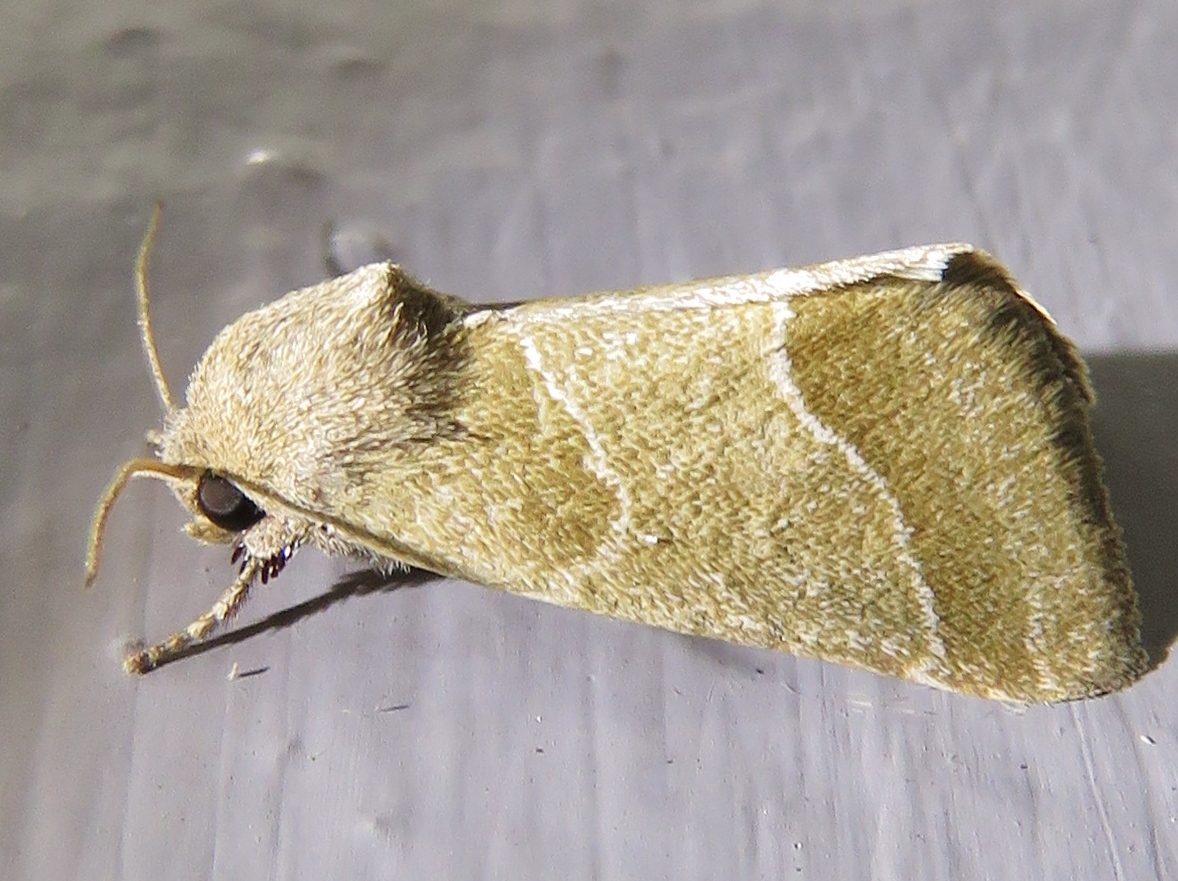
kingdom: Animalia
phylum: Arthropoda
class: Insecta
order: Lepidoptera
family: Noctuidae
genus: Schinia
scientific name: Schinia gracilenta
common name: Slender flower moth
